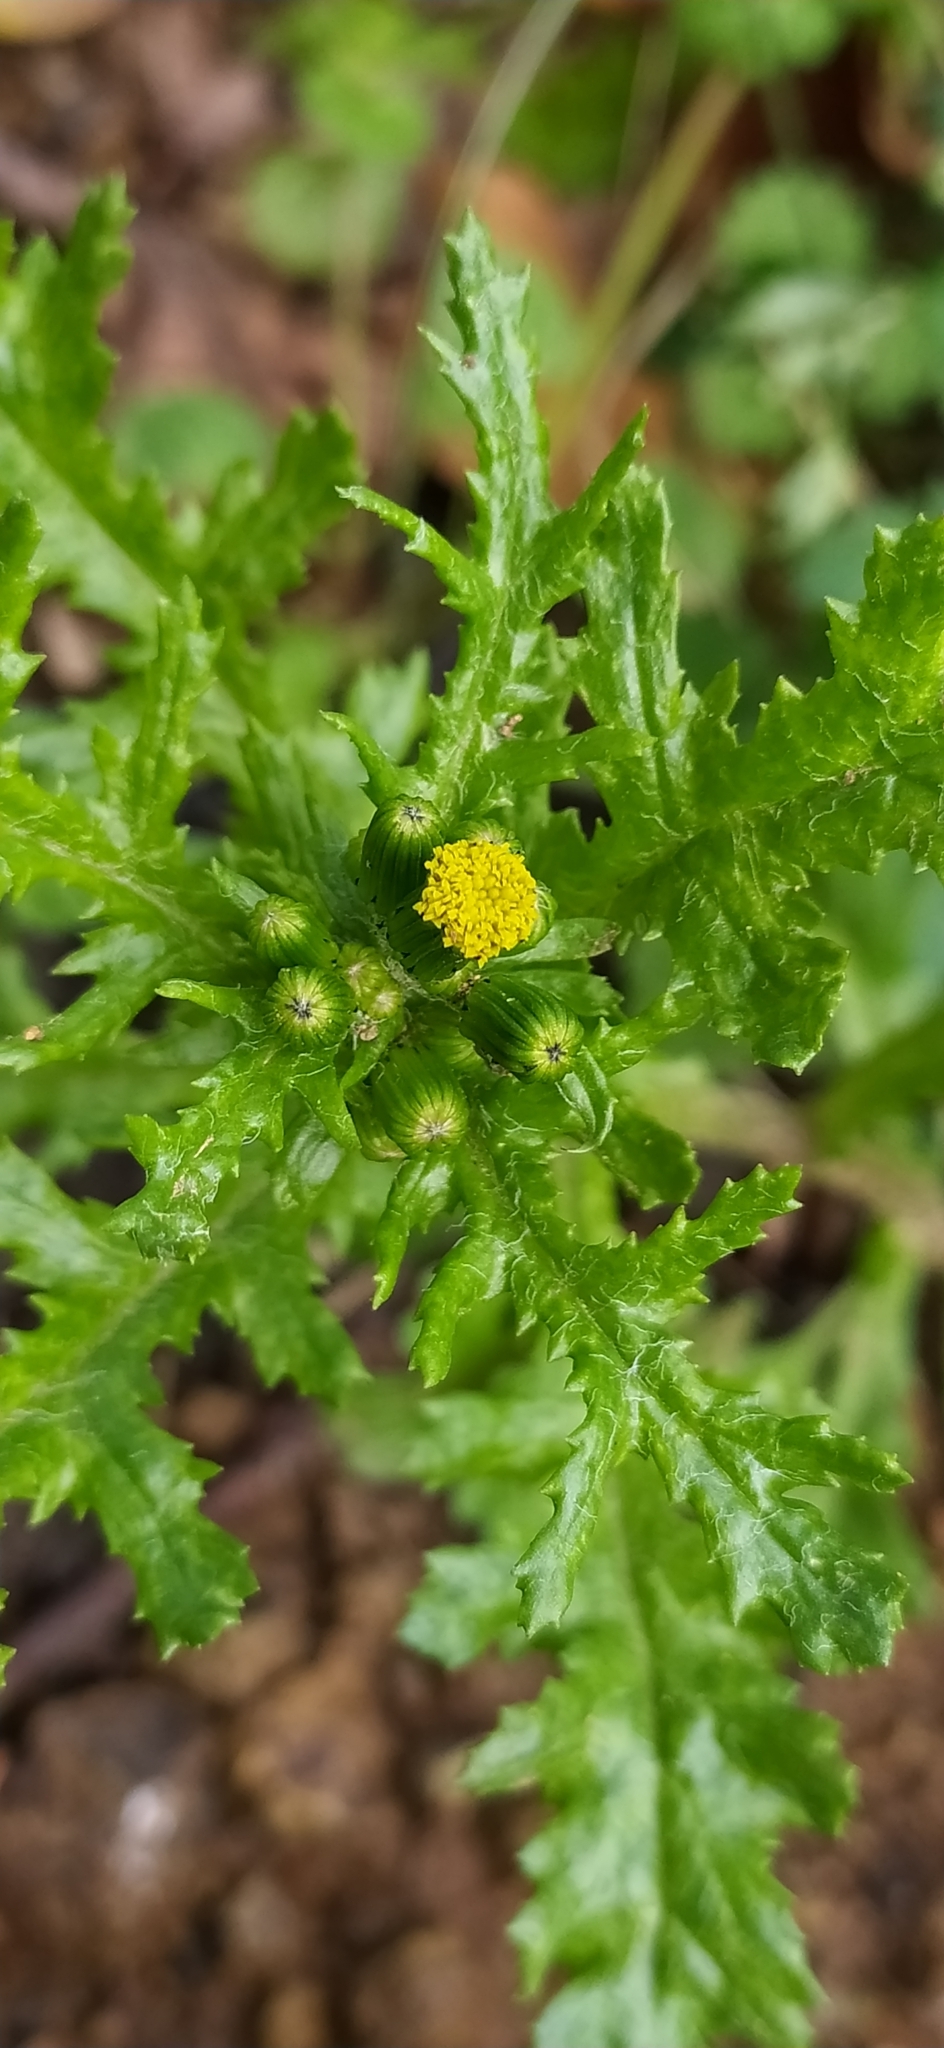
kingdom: Plantae
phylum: Tracheophyta
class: Magnoliopsida
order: Asterales
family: Asteraceae
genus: Senecio
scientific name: Senecio vulgaris
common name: Old-man-in-the-spring
